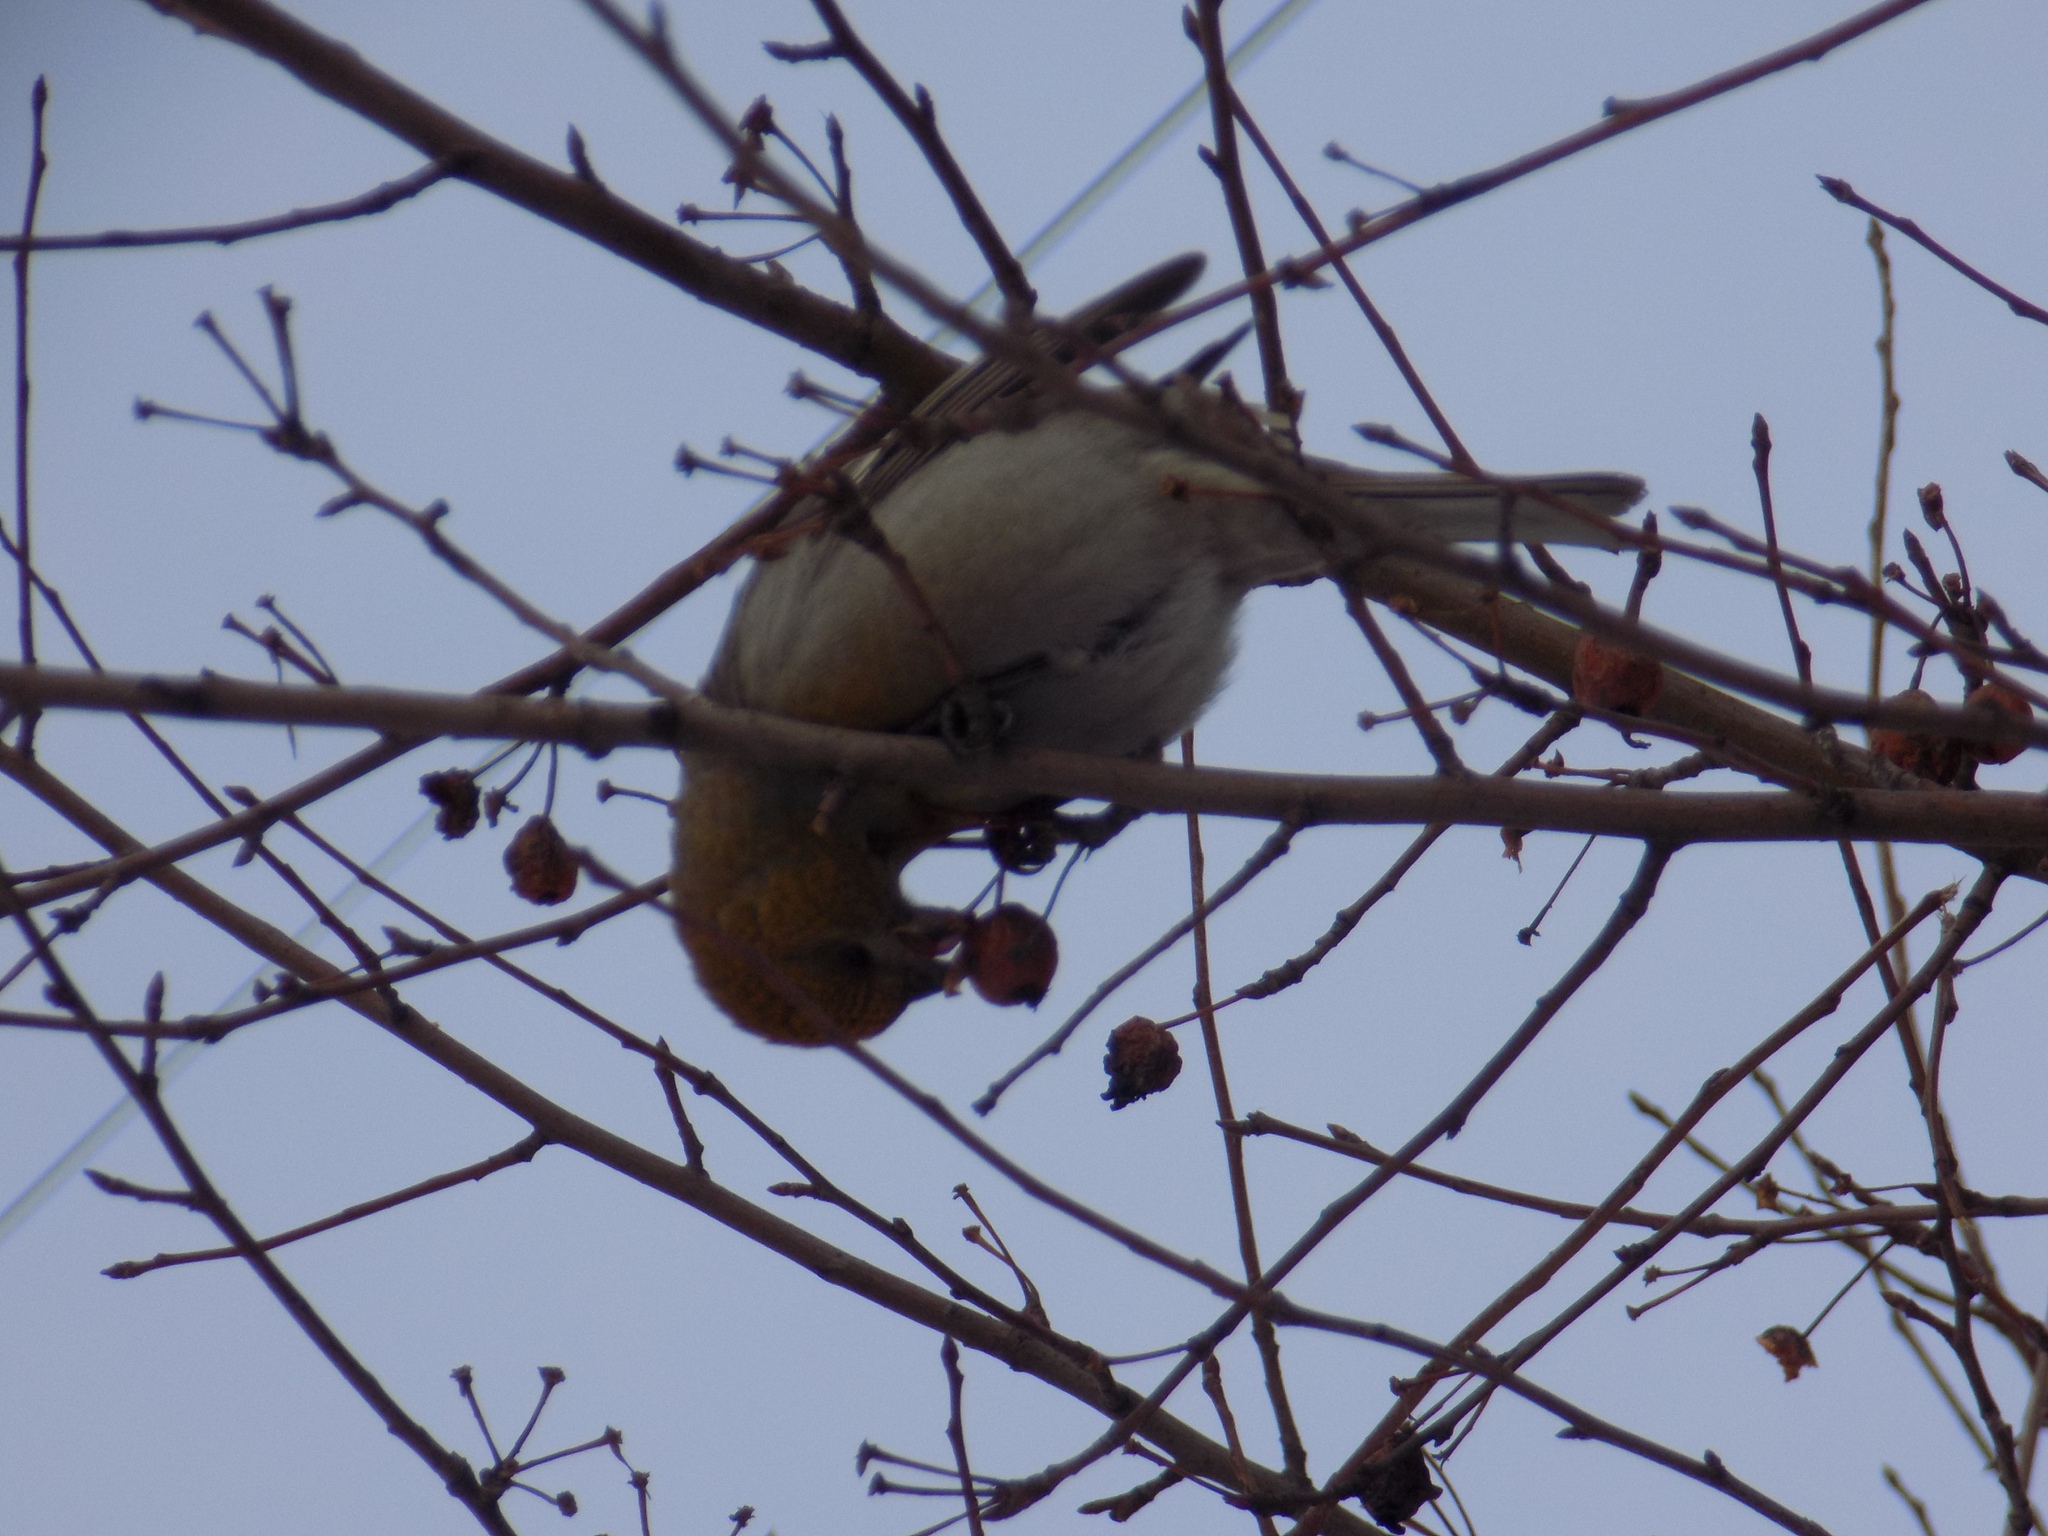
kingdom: Animalia
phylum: Chordata
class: Aves
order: Passeriformes
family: Fringillidae
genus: Pinicola
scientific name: Pinicola enucleator
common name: Pine grosbeak
